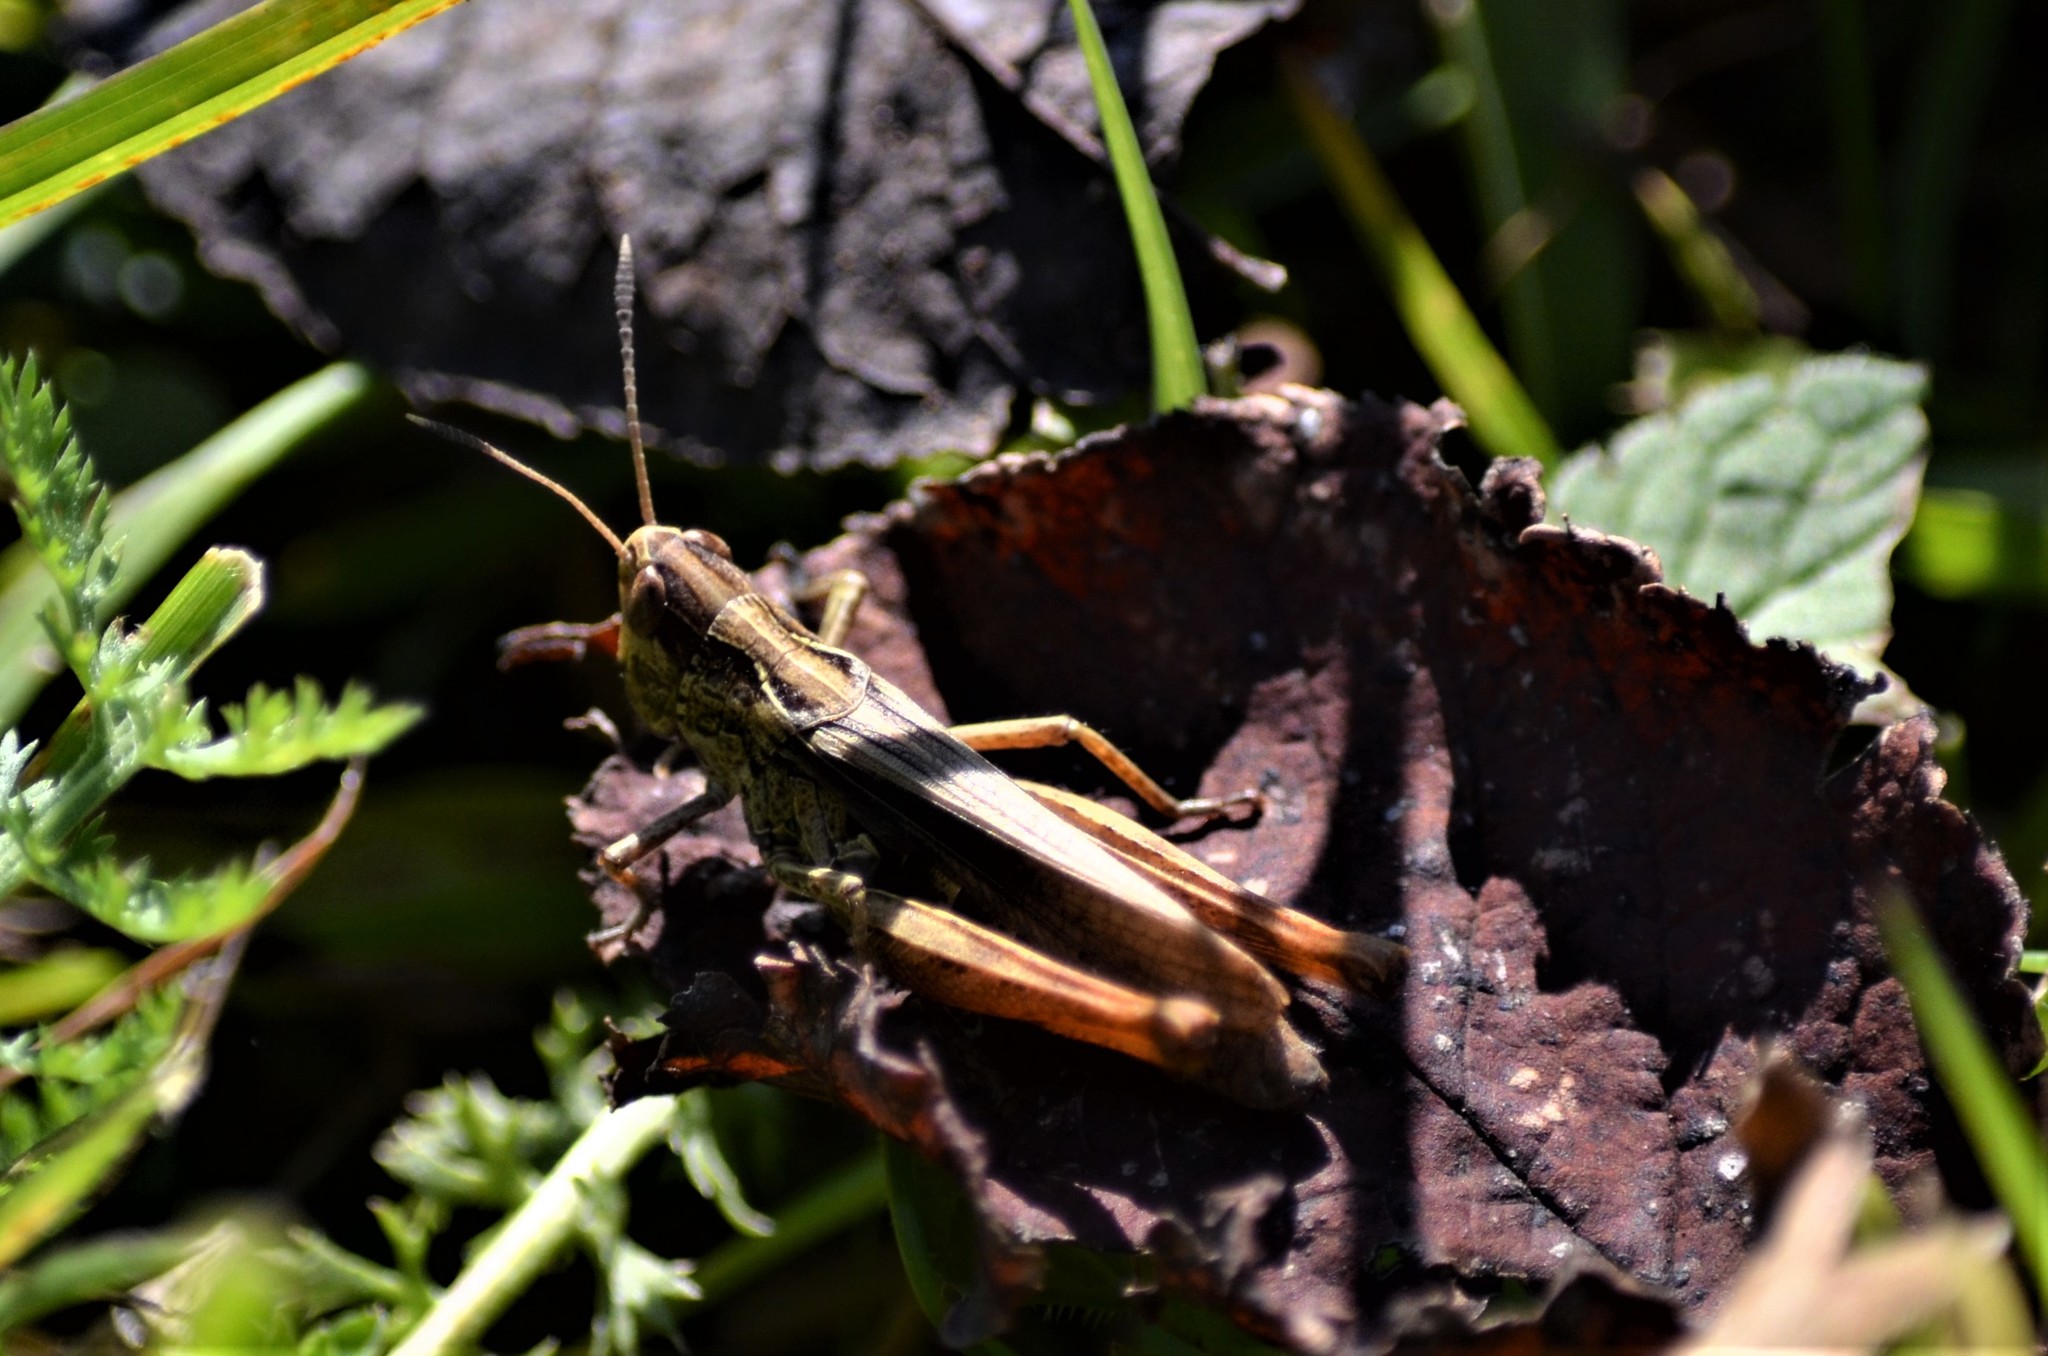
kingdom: Animalia
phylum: Arthropoda
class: Insecta
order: Orthoptera
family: Acrididae
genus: Gomphocerippus
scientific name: Gomphocerippus rufus
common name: Rufous grasshopper
